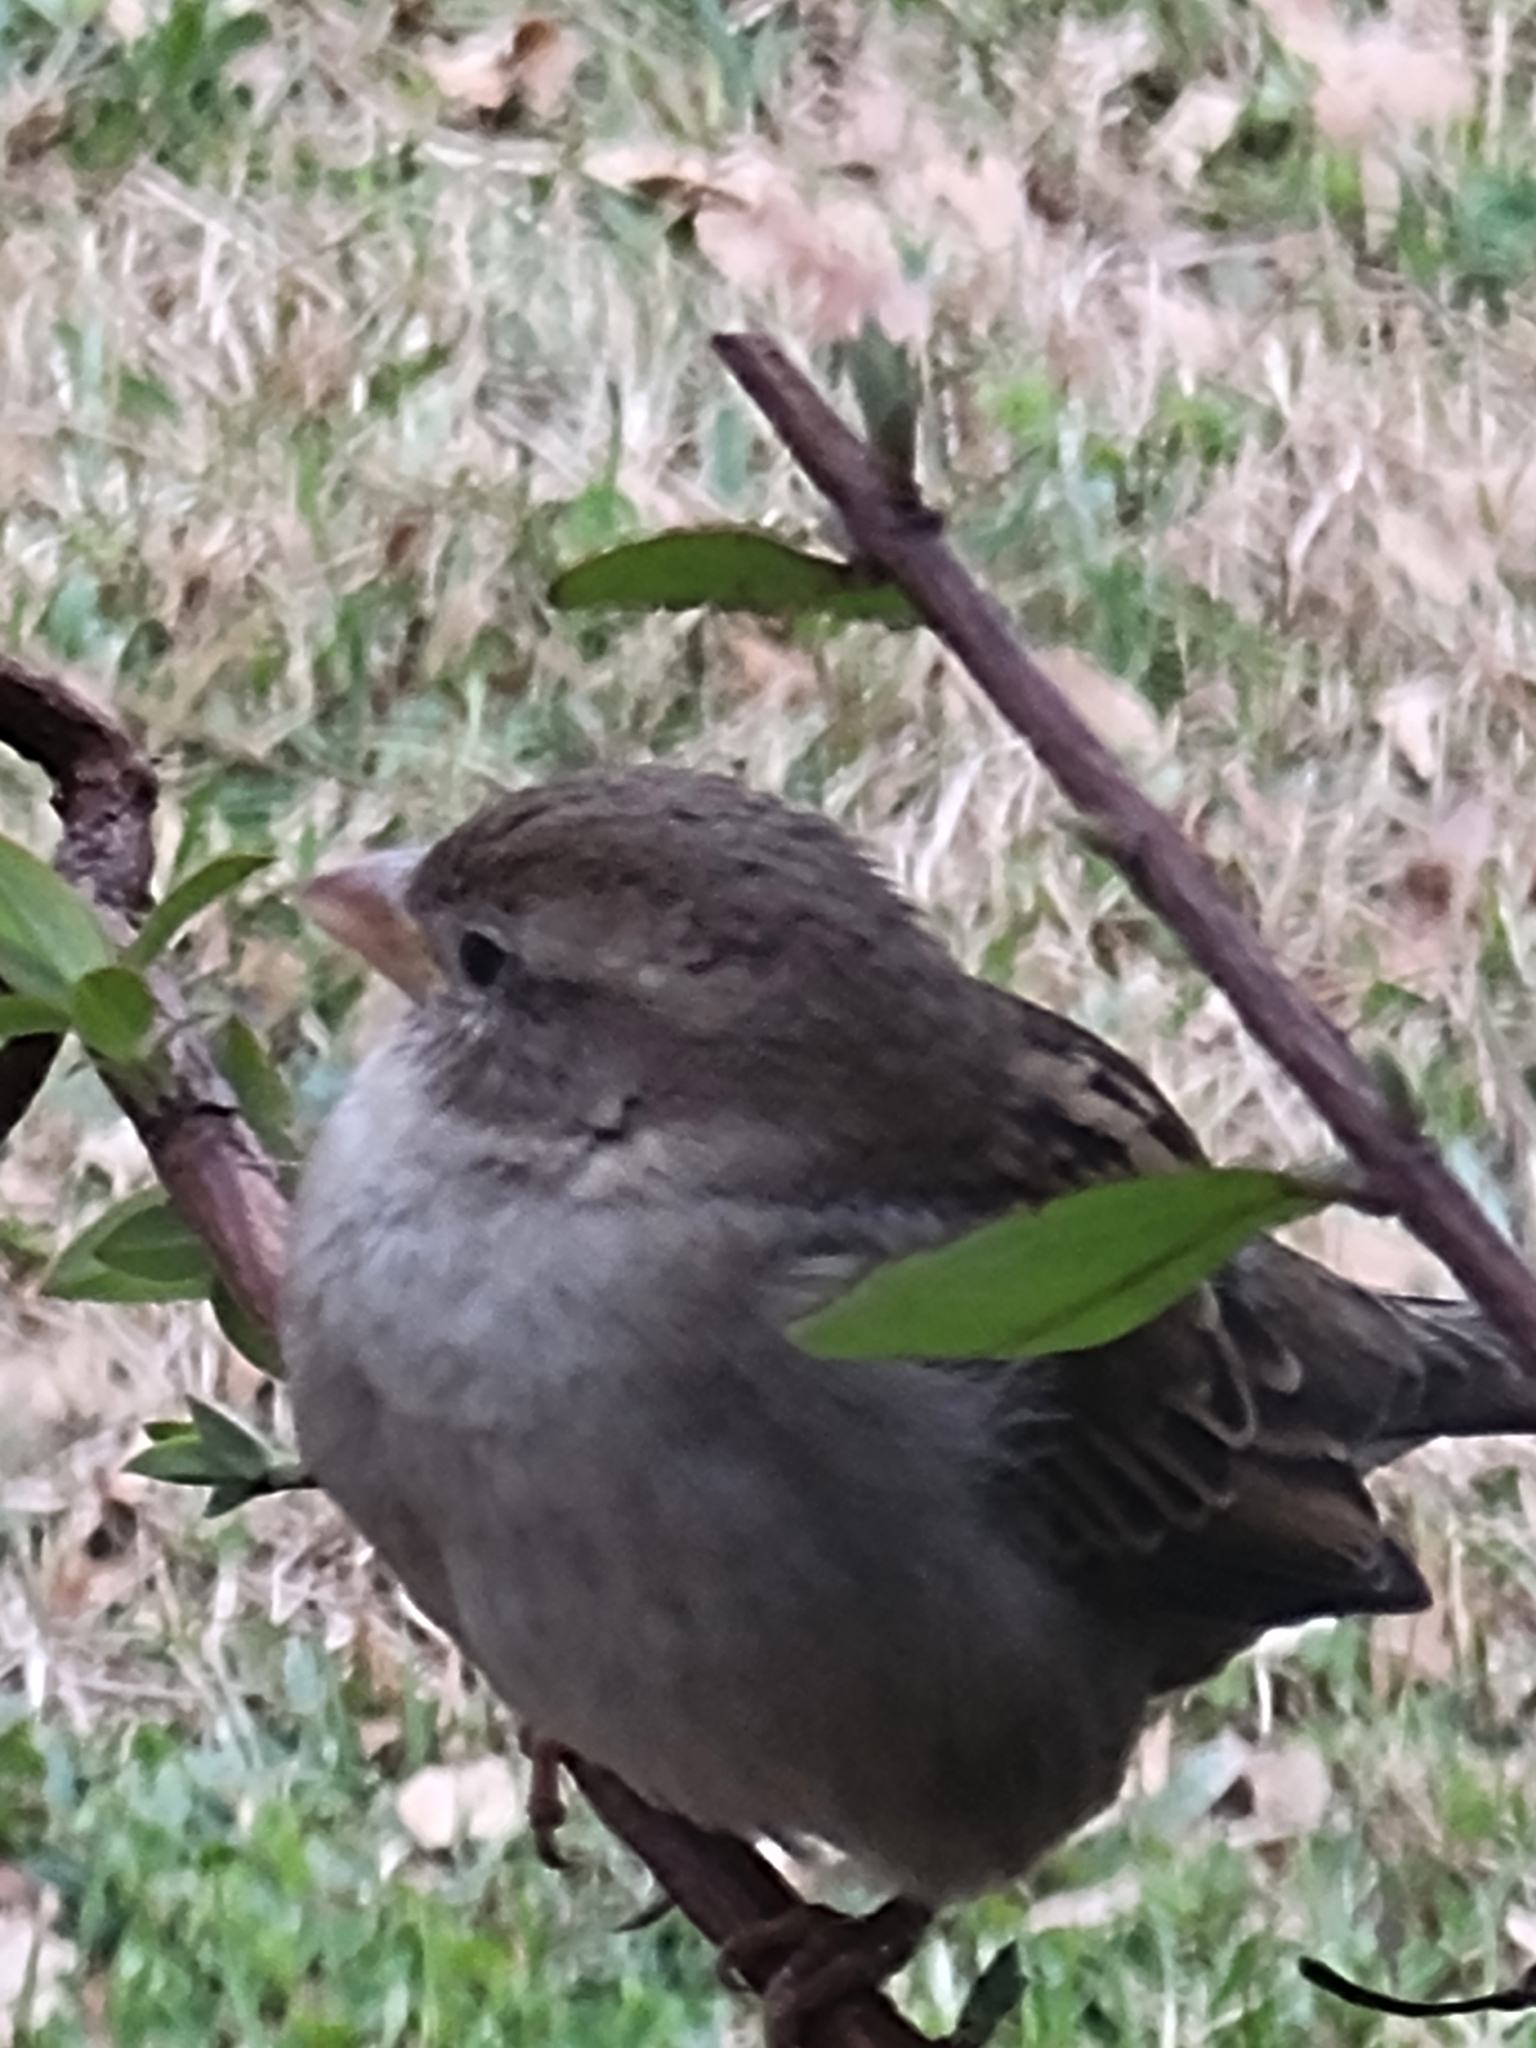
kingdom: Animalia
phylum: Chordata
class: Aves
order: Passeriformes
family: Passeridae
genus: Passer
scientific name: Passer domesticus
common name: House sparrow
